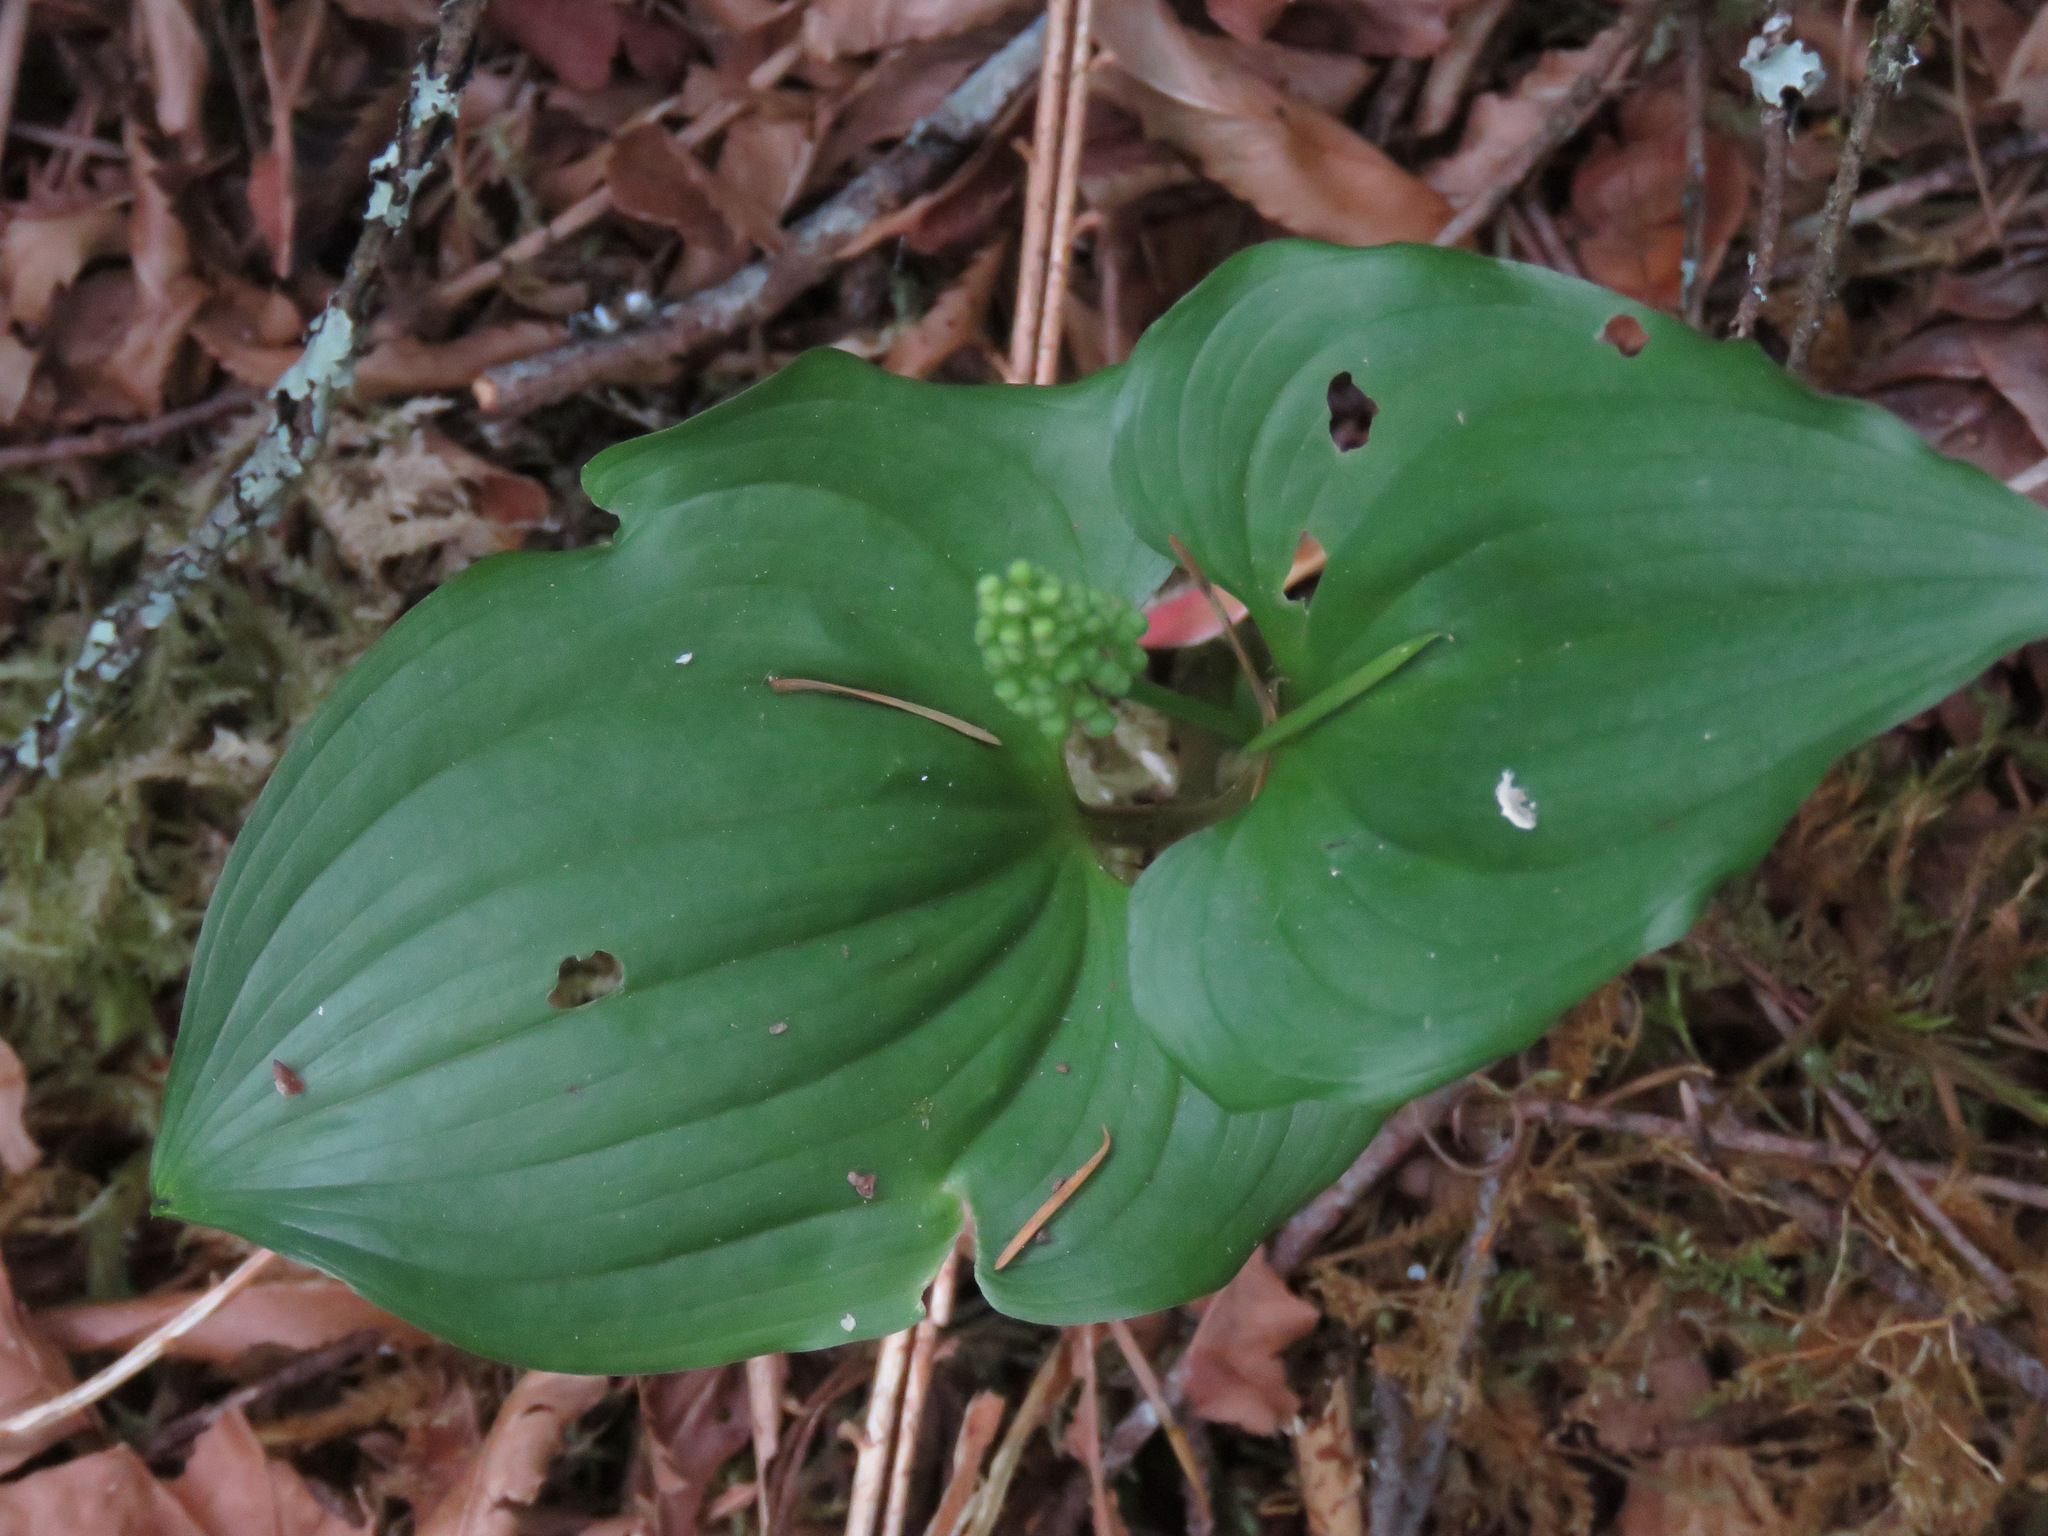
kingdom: Plantae
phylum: Tracheophyta
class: Liliopsida
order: Asparagales
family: Asparagaceae
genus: Maianthemum
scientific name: Maianthemum dilatatum
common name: False lily-of-the-valley
